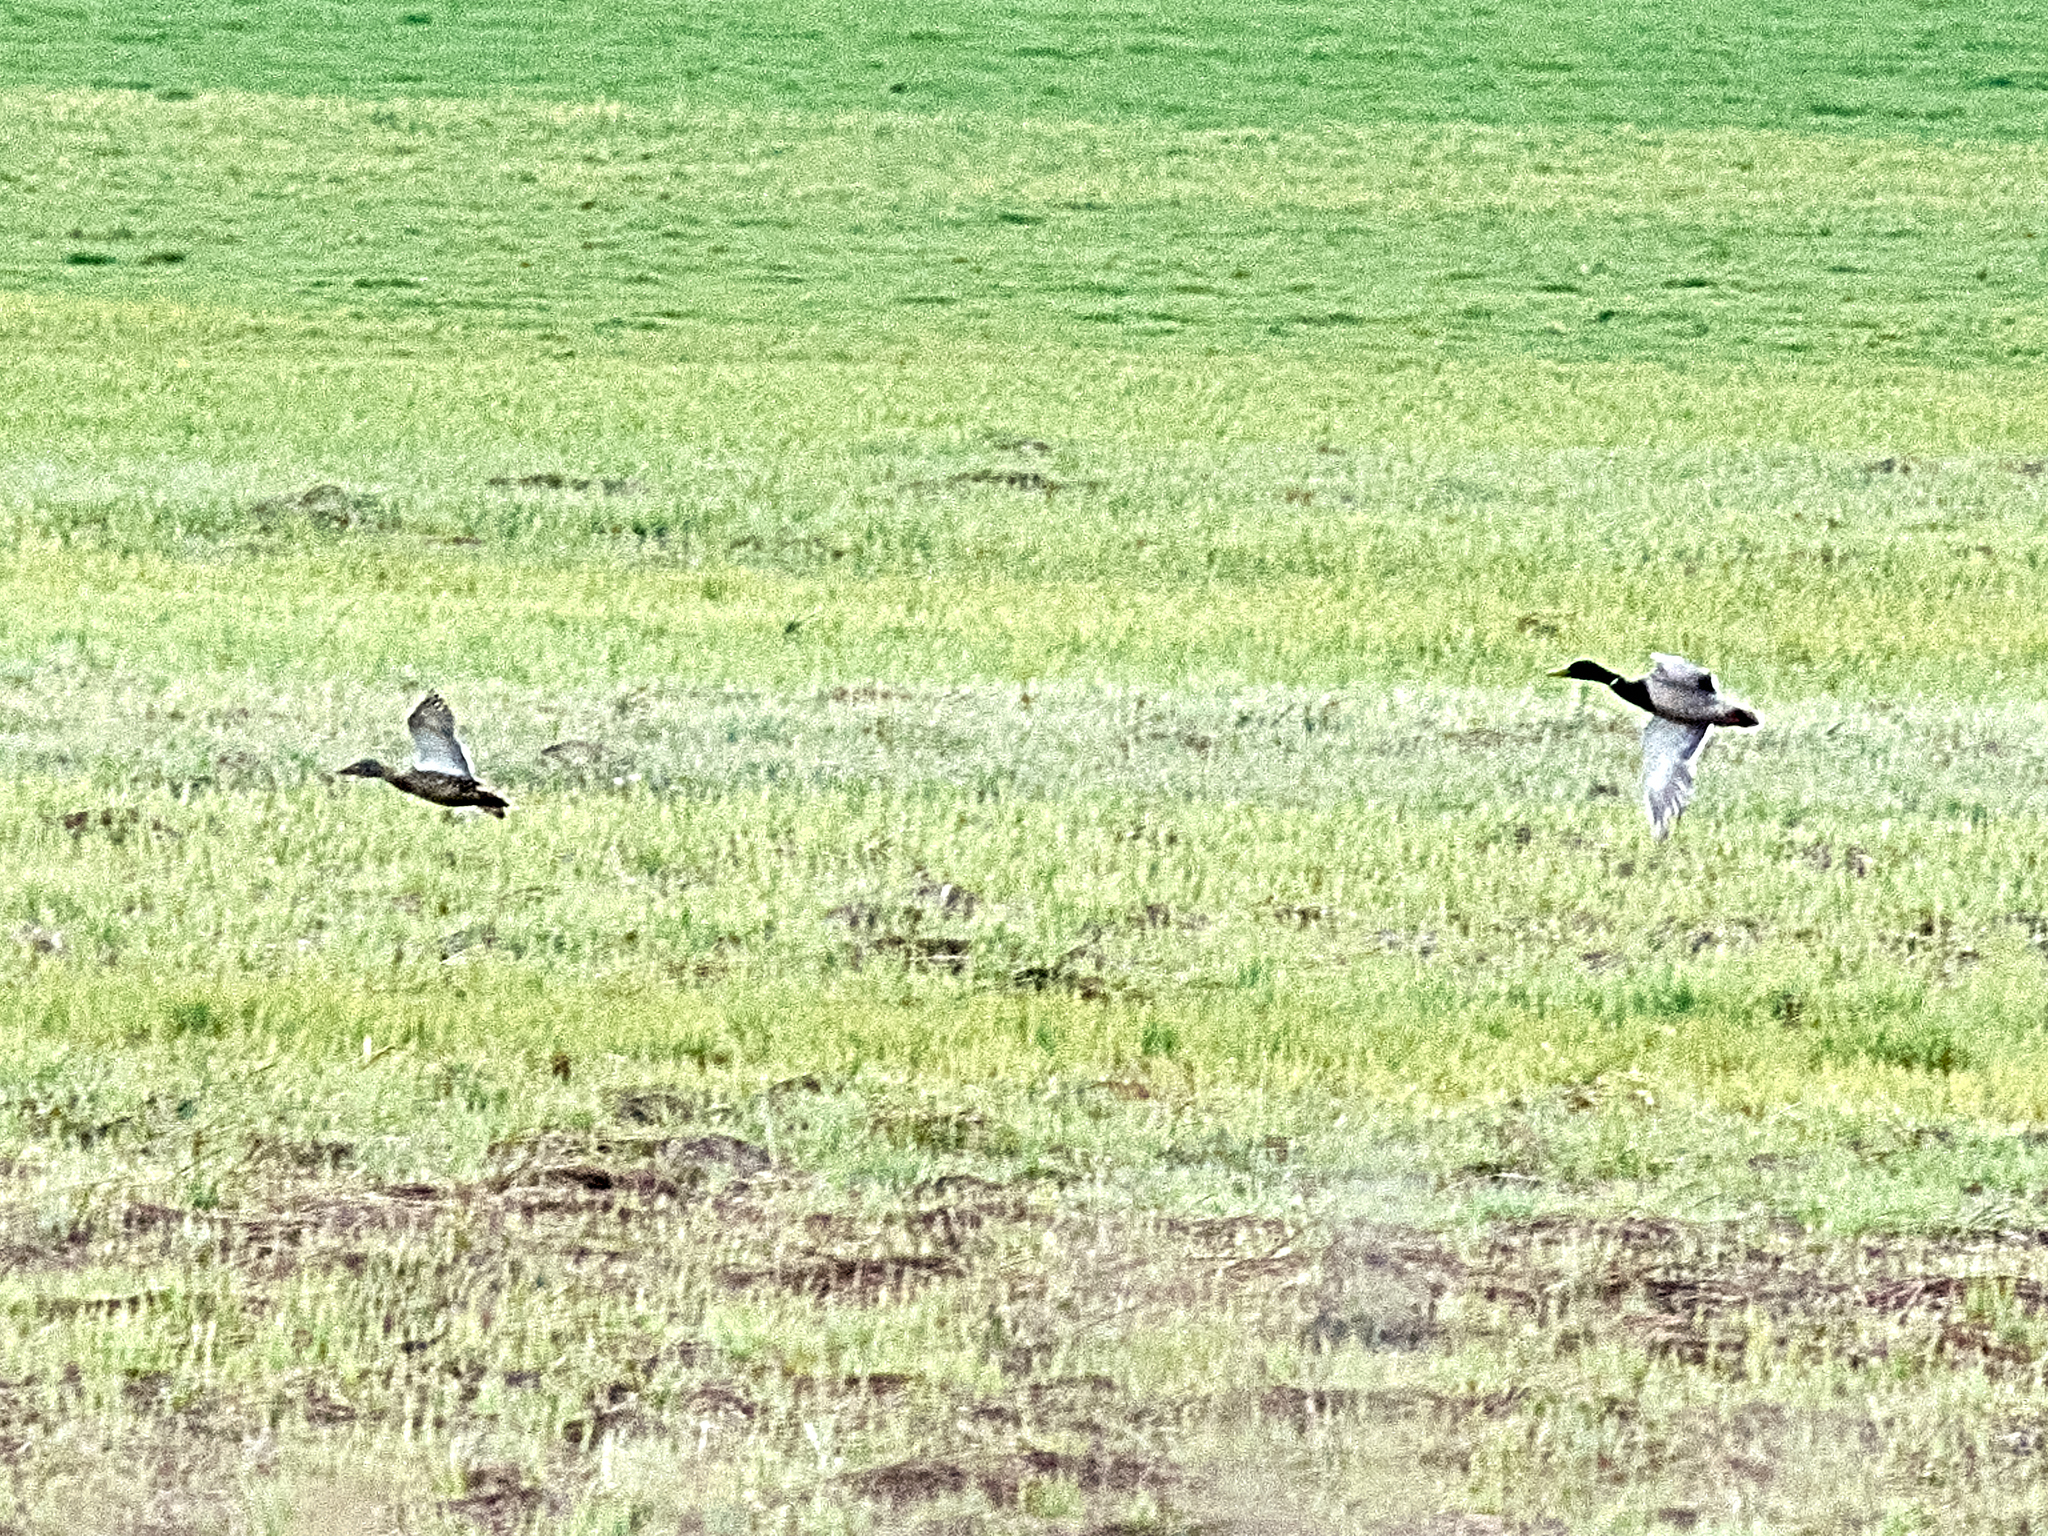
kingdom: Animalia
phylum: Chordata
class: Aves
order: Anseriformes
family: Anatidae
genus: Anas
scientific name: Anas platyrhynchos
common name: Mallard
